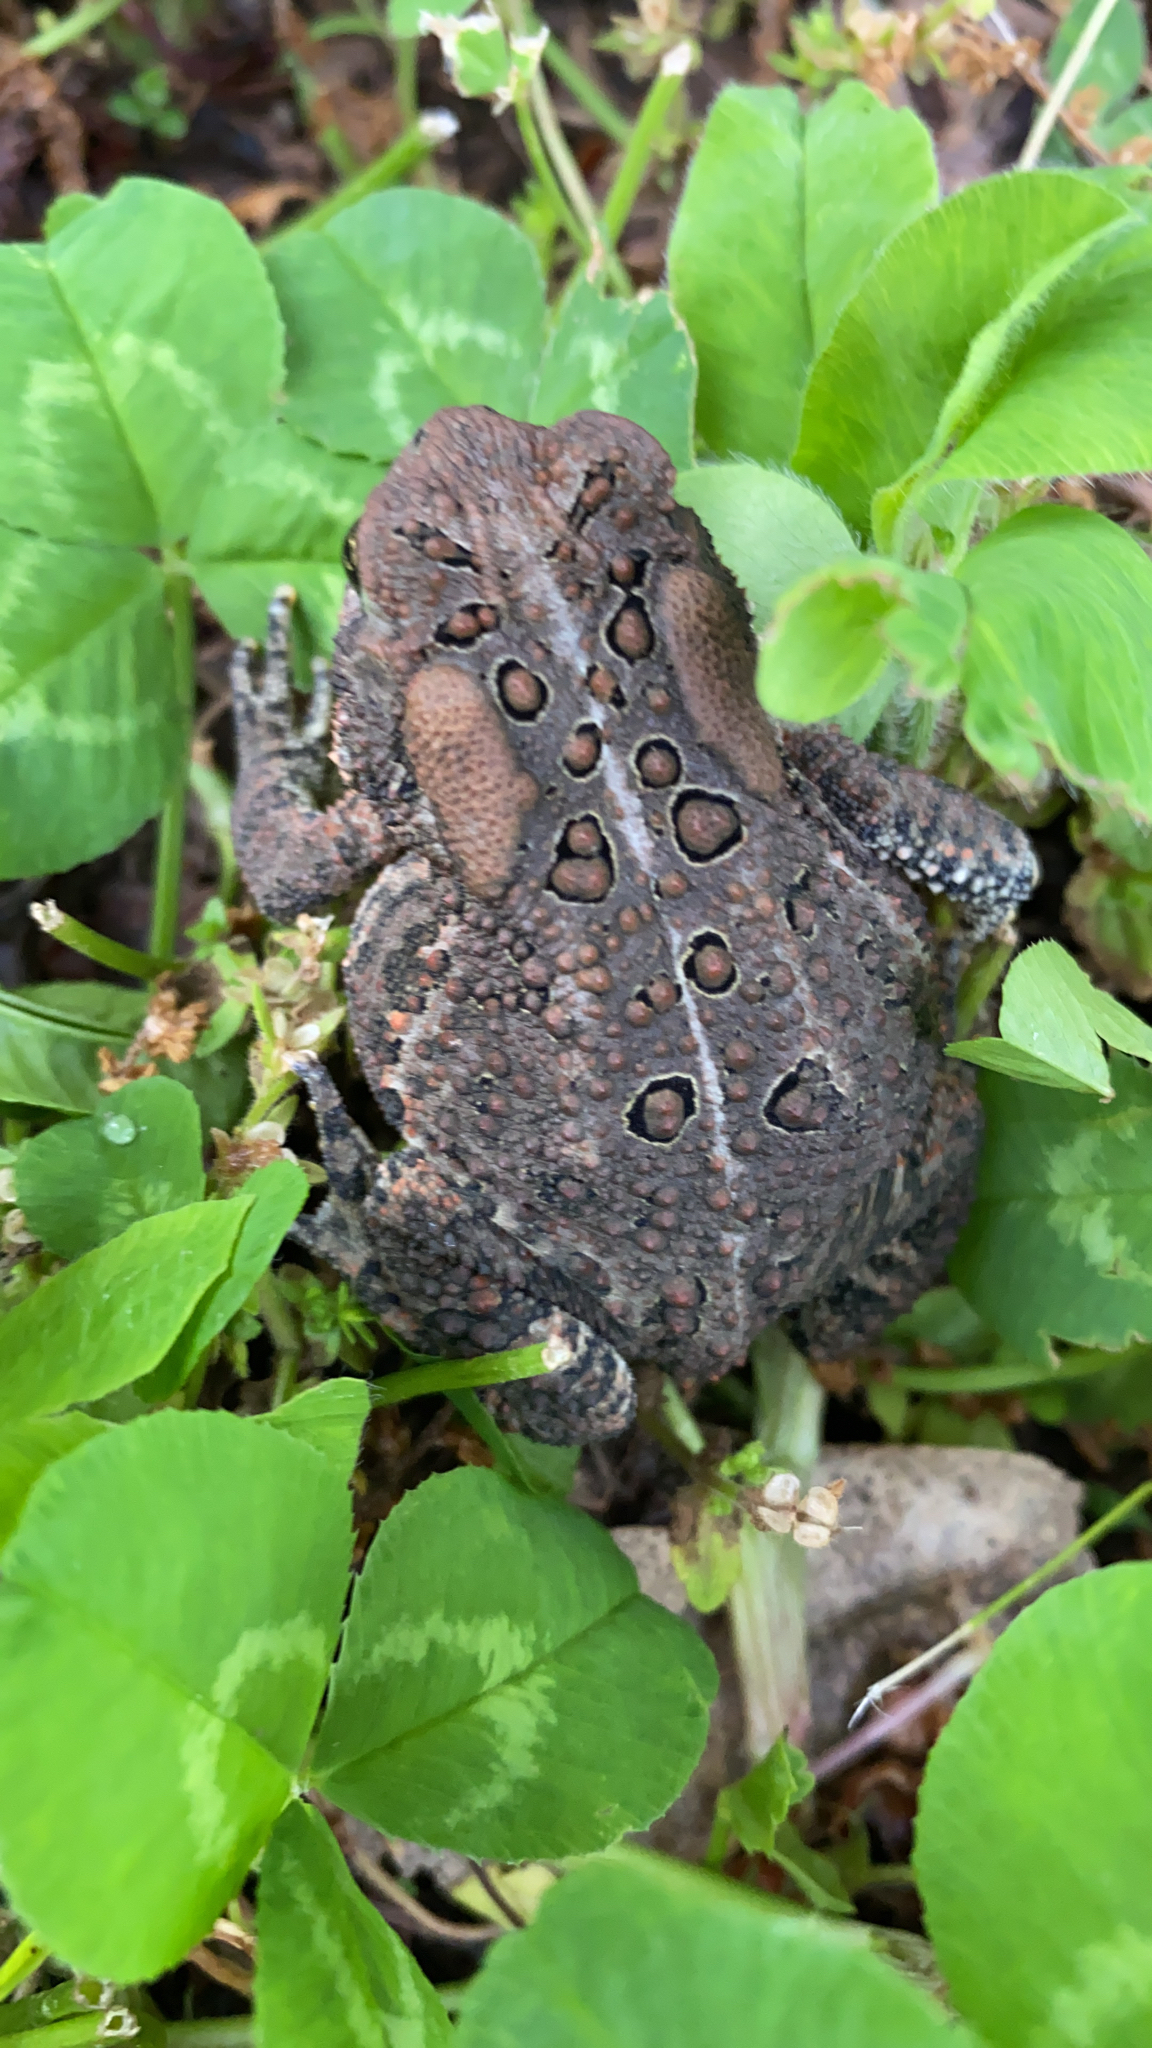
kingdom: Animalia
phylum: Chordata
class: Amphibia
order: Anura
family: Bufonidae
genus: Anaxyrus
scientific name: Anaxyrus americanus
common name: American toad
